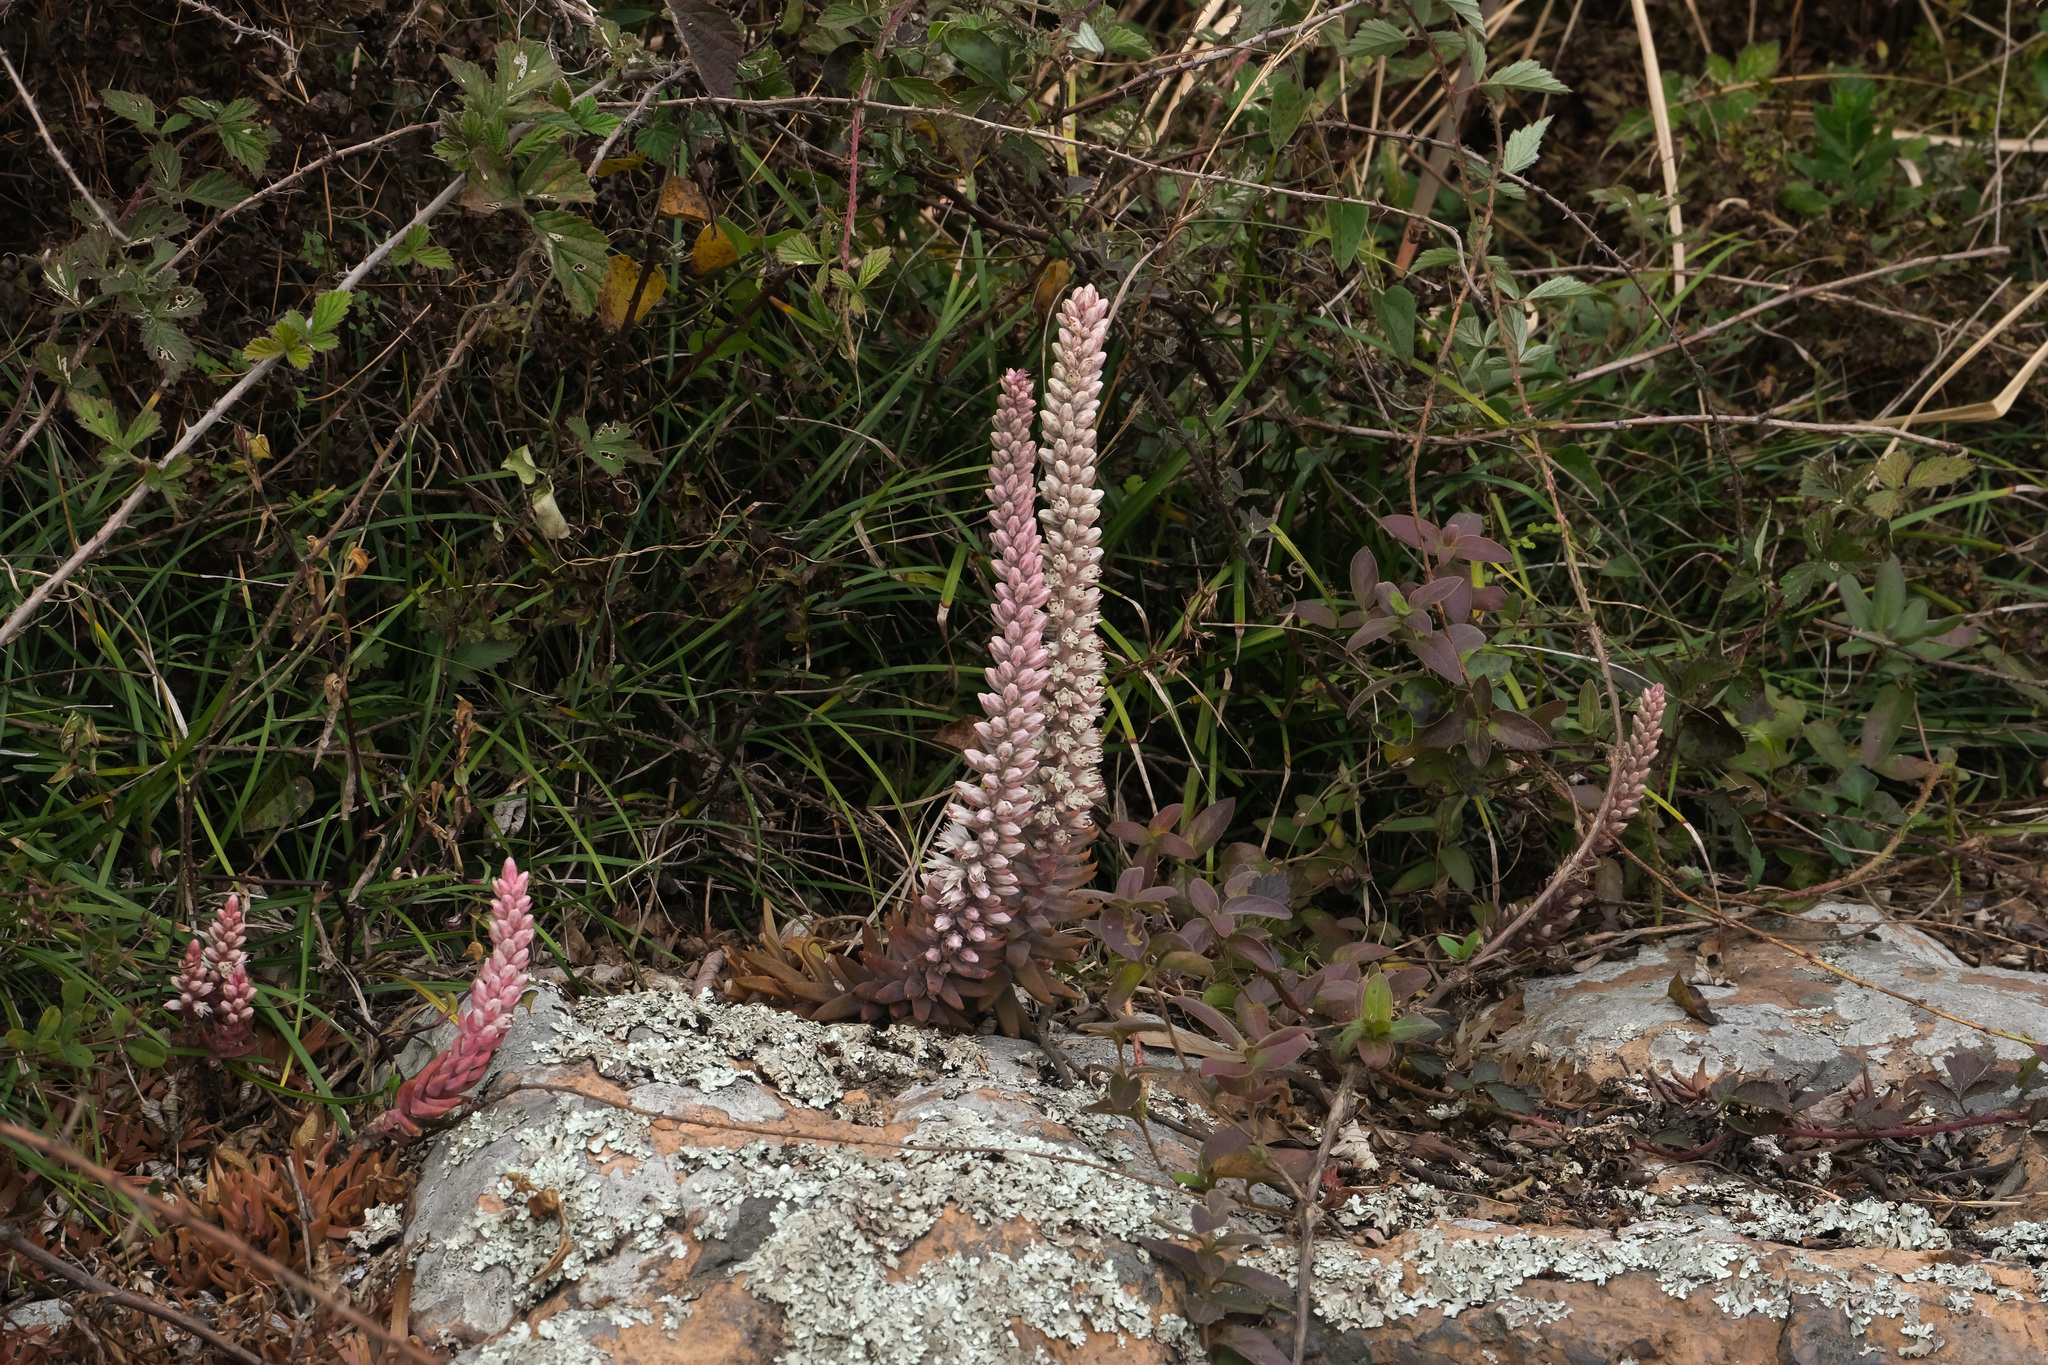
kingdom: Plantae
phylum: Tracheophyta
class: Magnoliopsida
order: Saxifragales
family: Crassulaceae
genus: Orostachys
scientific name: Orostachys fimbriata
